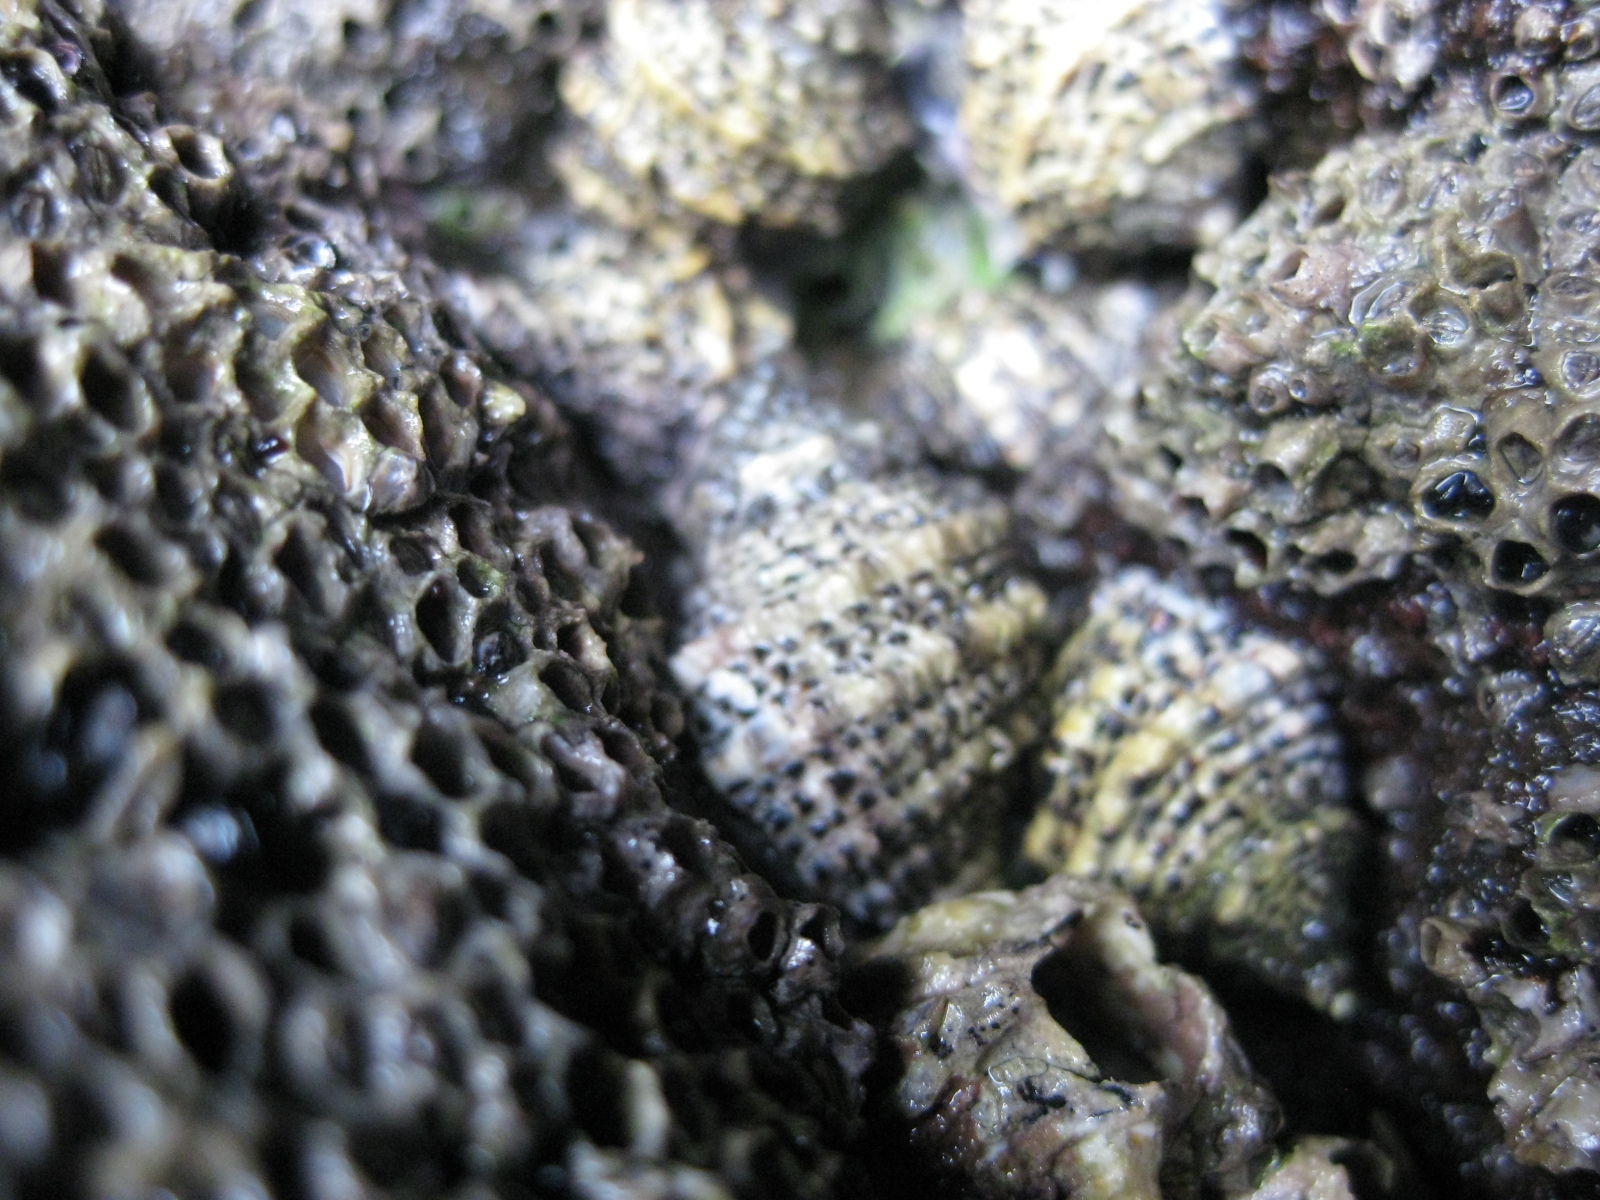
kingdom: Animalia
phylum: Mollusca
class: Gastropoda
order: Neogastropoda
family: Muricidae
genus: Haustrum
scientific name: Haustrum scobina
